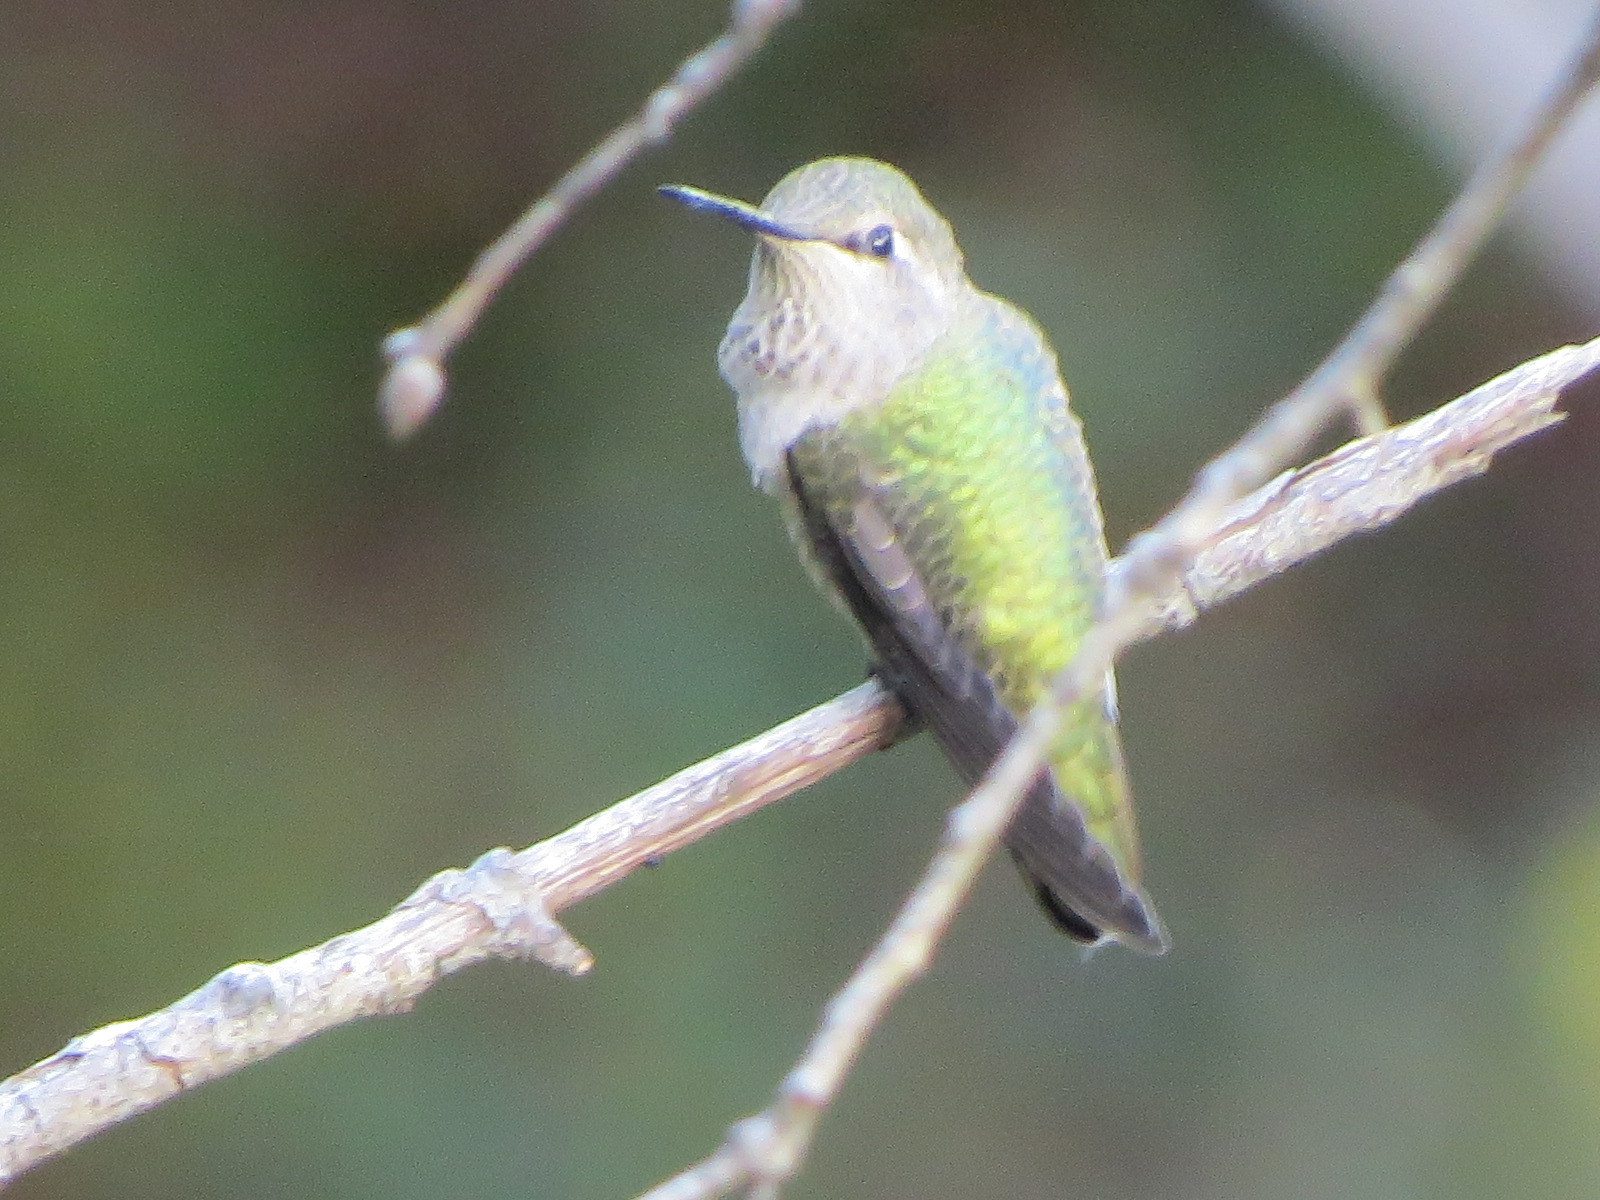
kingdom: Animalia
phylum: Chordata
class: Aves
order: Apodiformes
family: Trochilidae
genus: Calypte
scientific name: Calypte anna
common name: Anna's hummingbird
